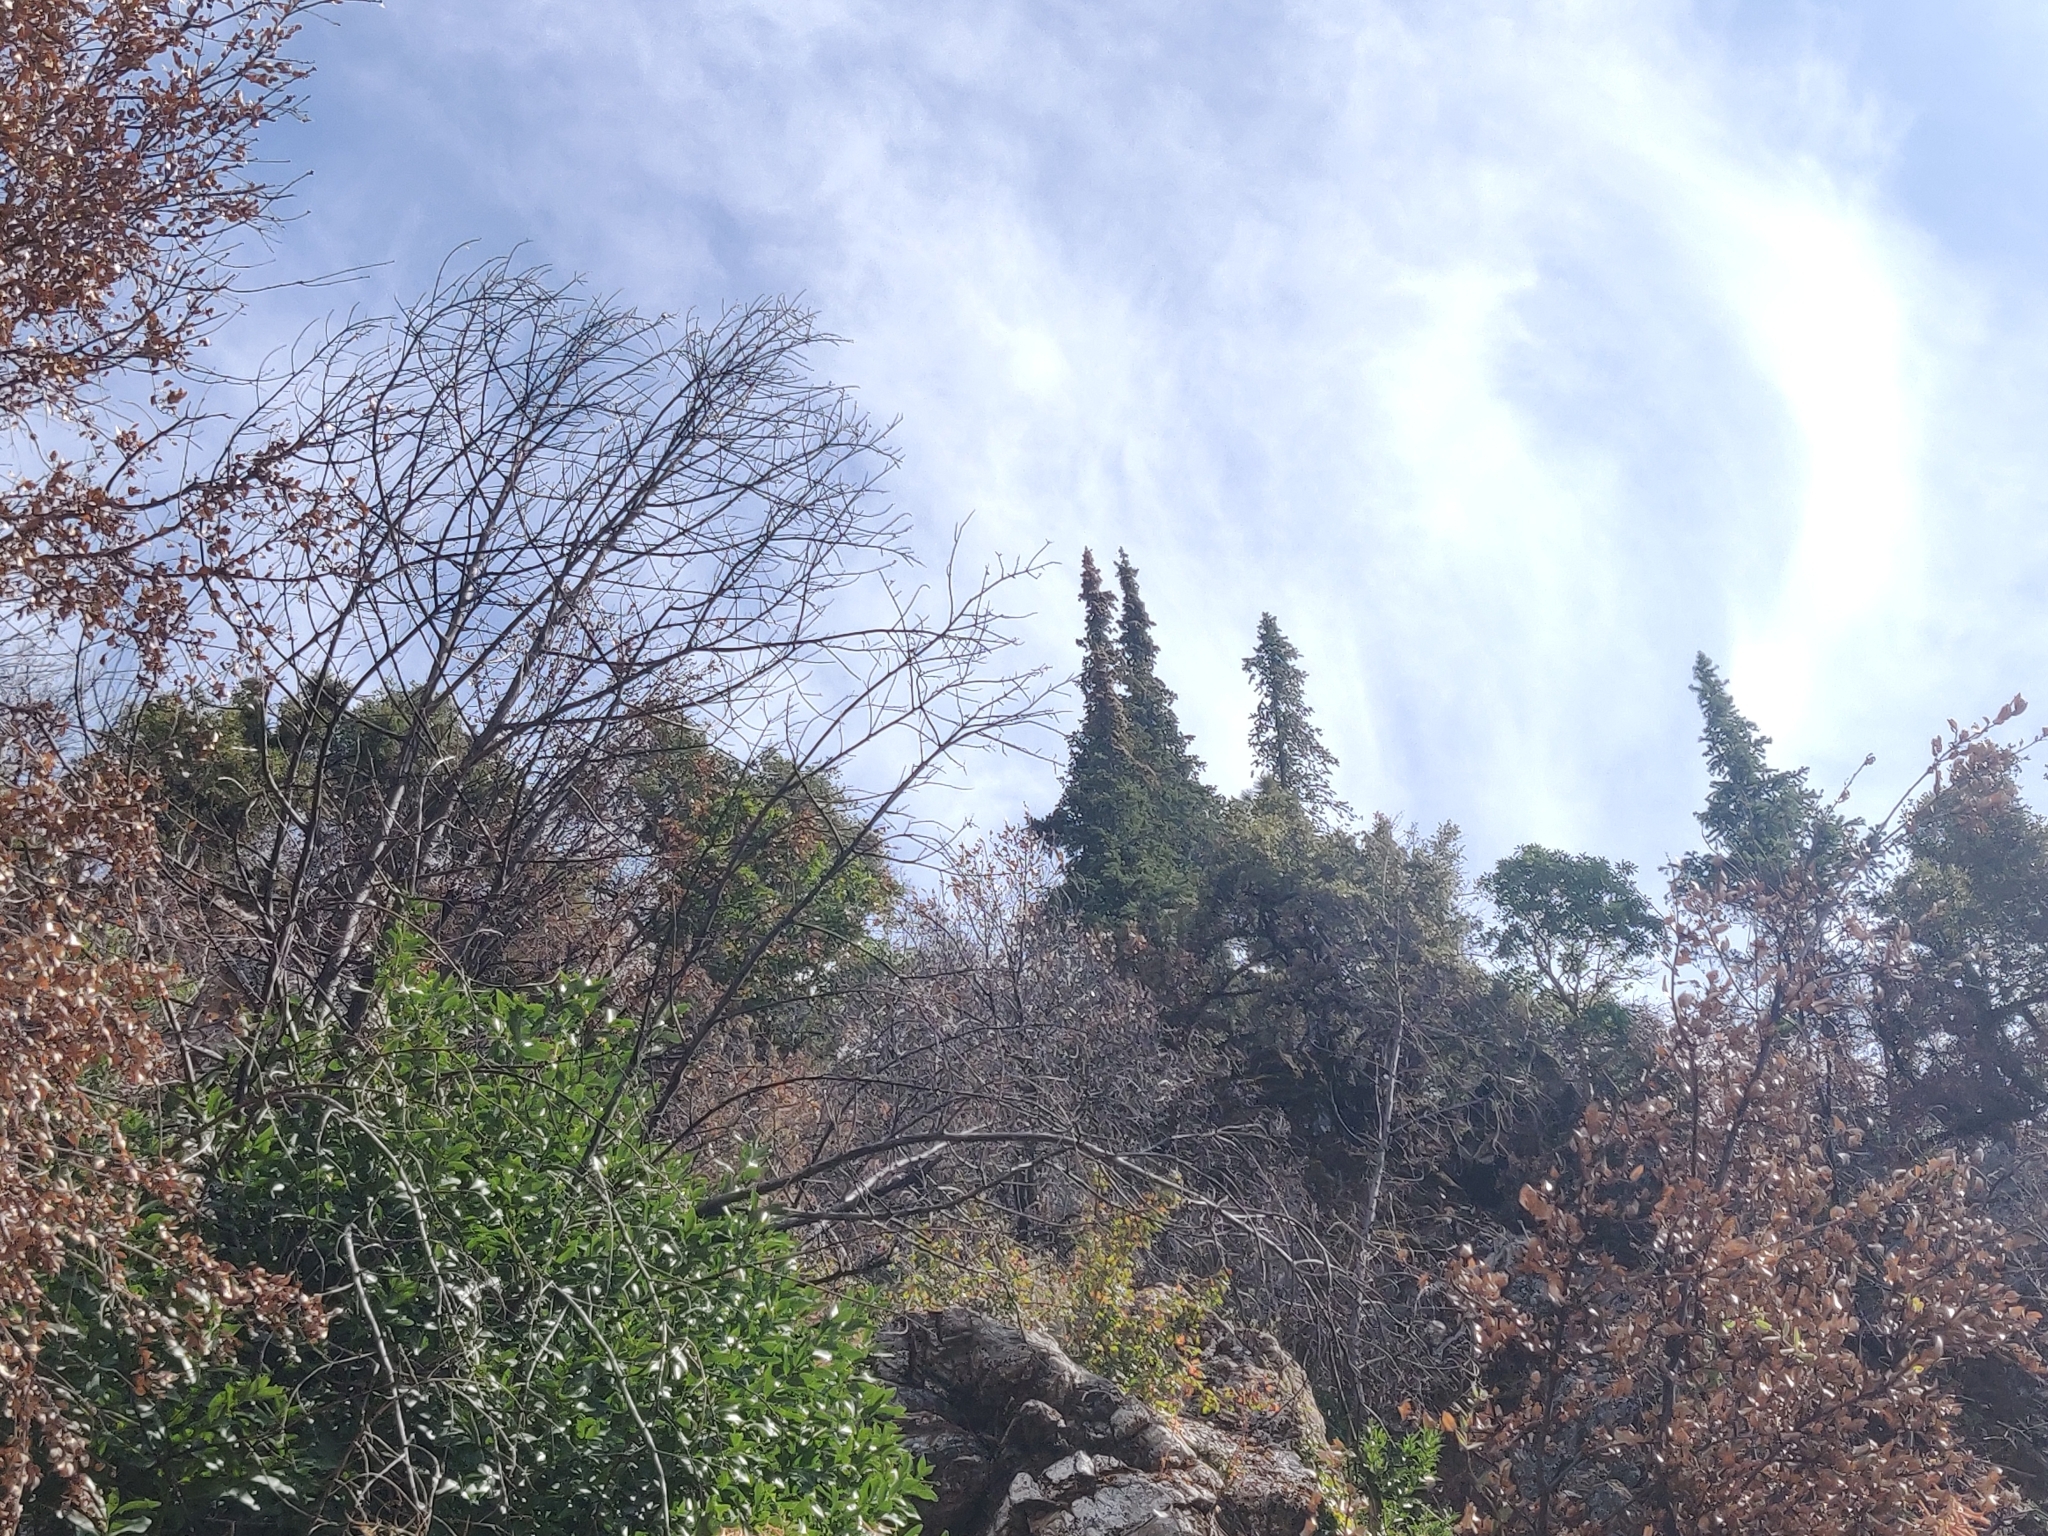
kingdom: Plantae
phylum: Tracheophyta
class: Pinopsida
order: Pinales
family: Pinaceae
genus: Abies
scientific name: Abies bracteata
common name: Bristlecone fir
